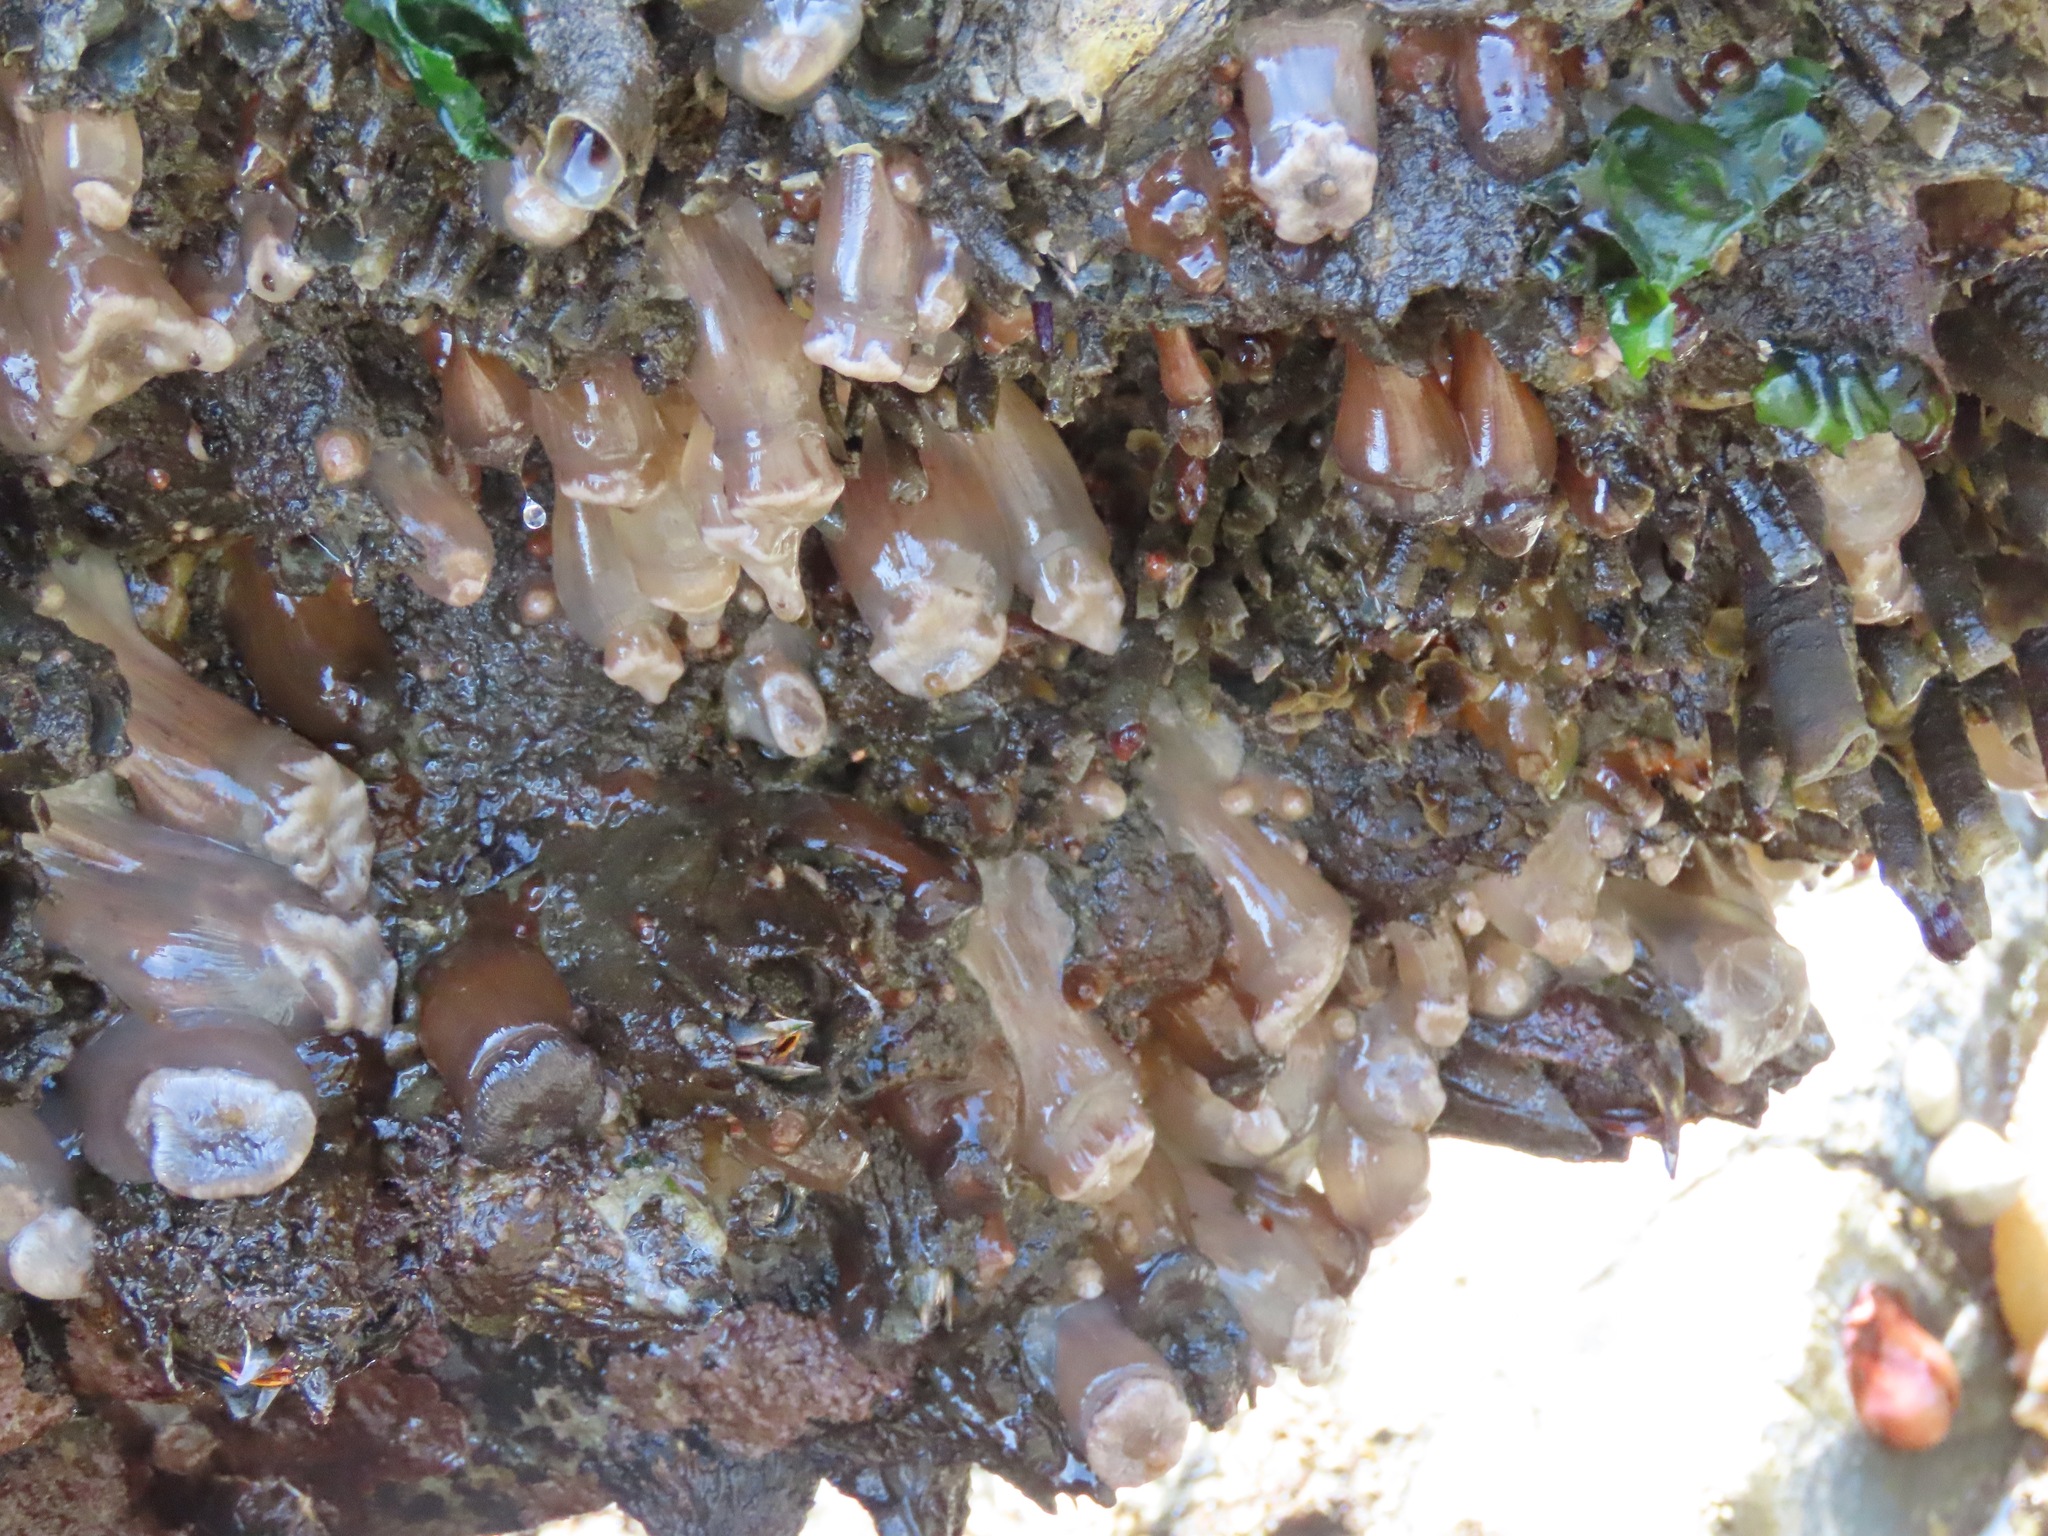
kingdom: Animalia
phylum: Cnidaria
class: Anthozoa
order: Actiniaria
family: Metridiidae
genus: Metridium
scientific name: Metridium senile
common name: Clonal plumose anemone
